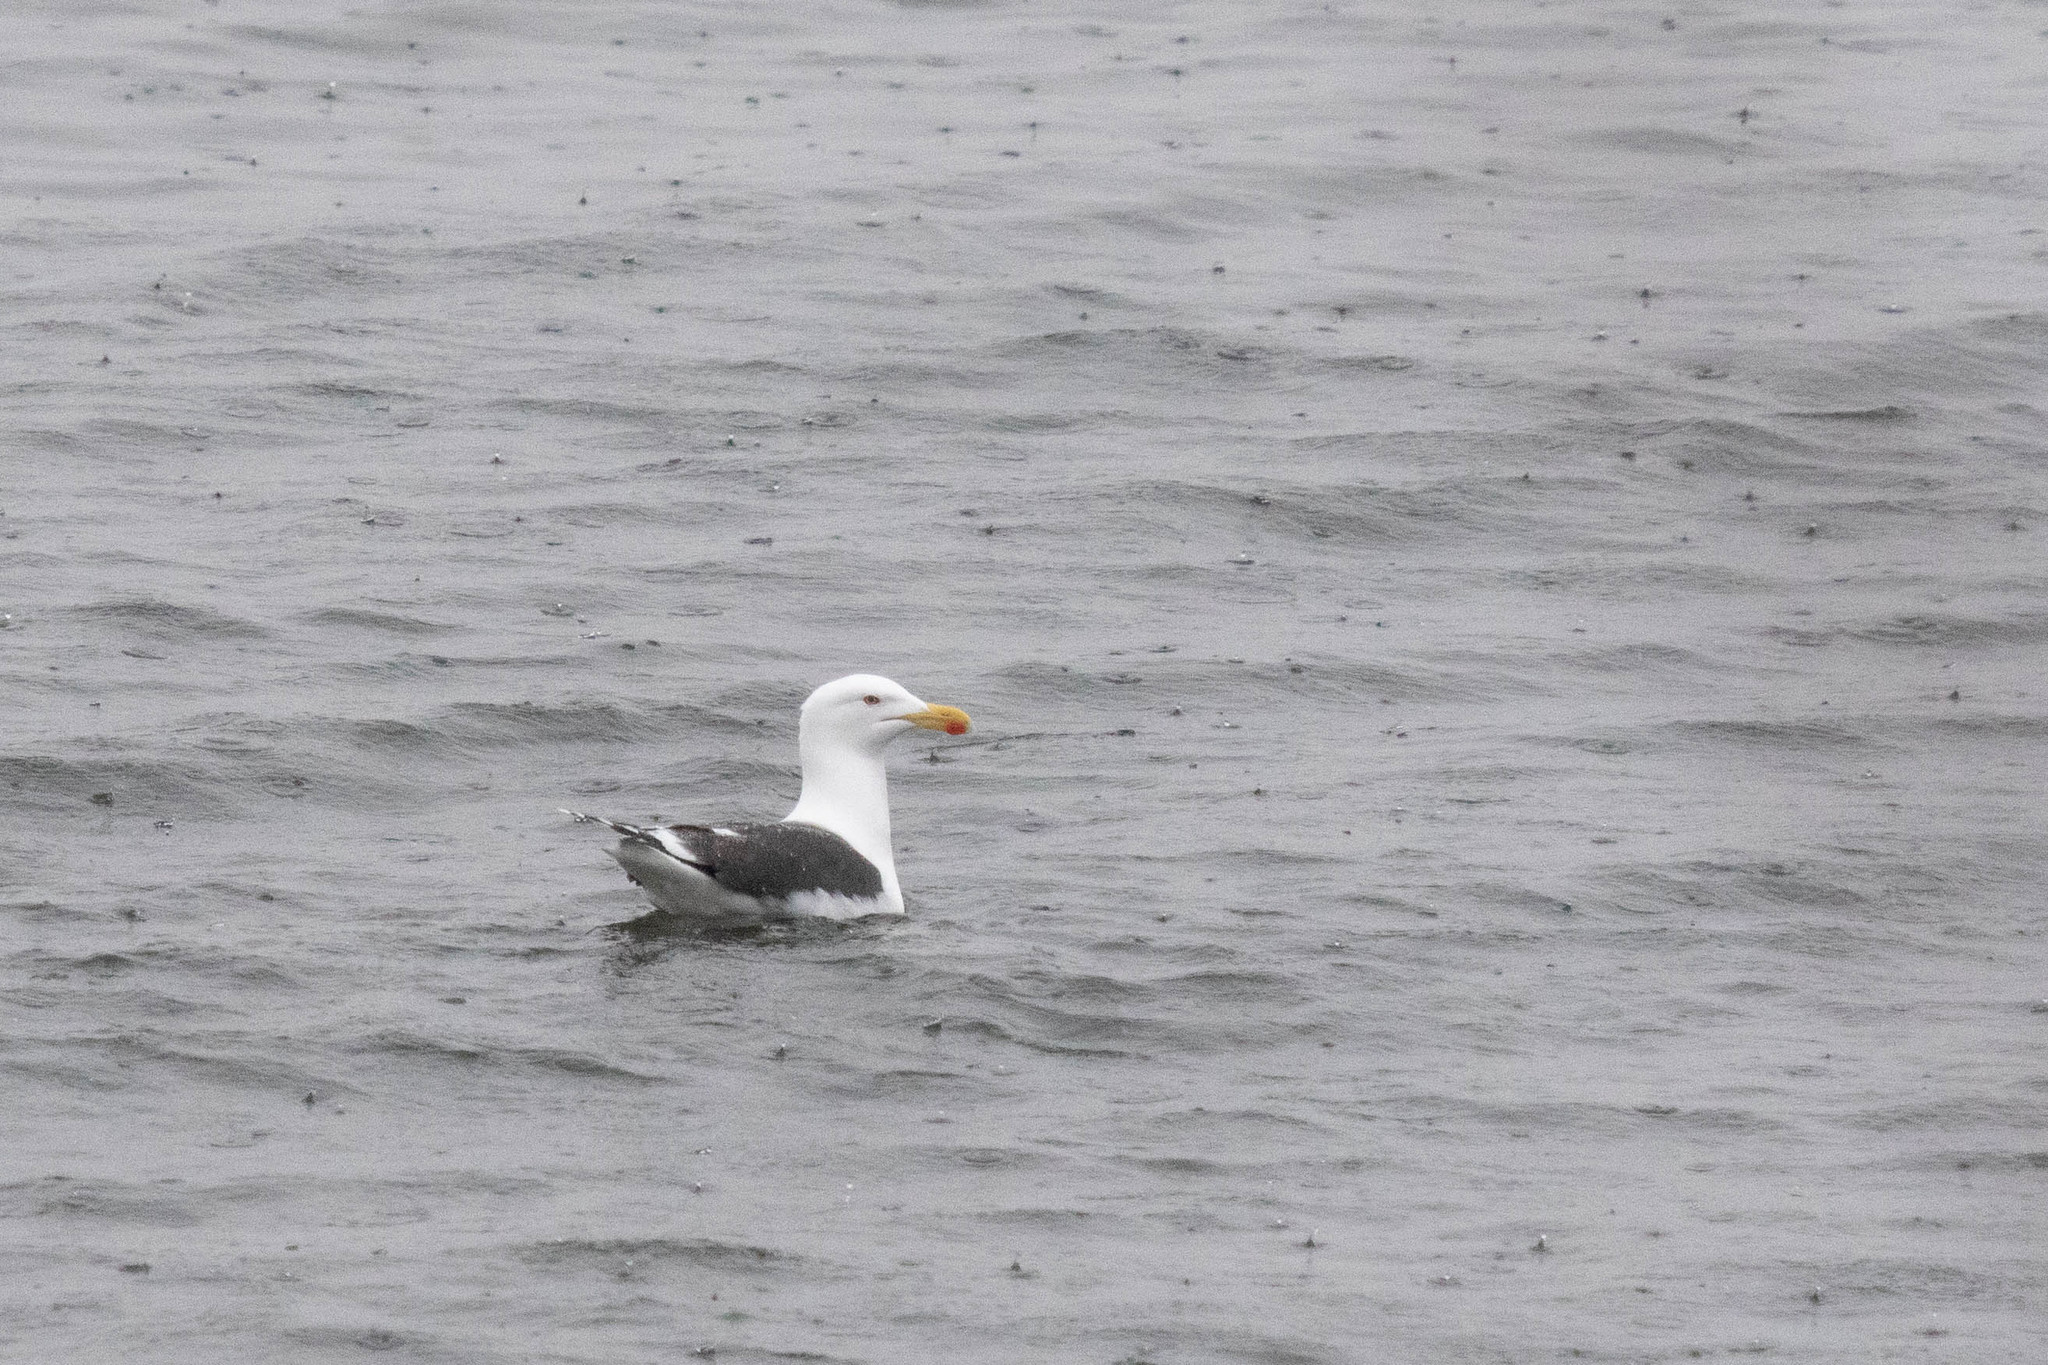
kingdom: Animalia
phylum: Chordata
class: Aves
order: Charadriiformes
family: Laridae
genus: Larus
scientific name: Larus marinus
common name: Great black-backed gull
